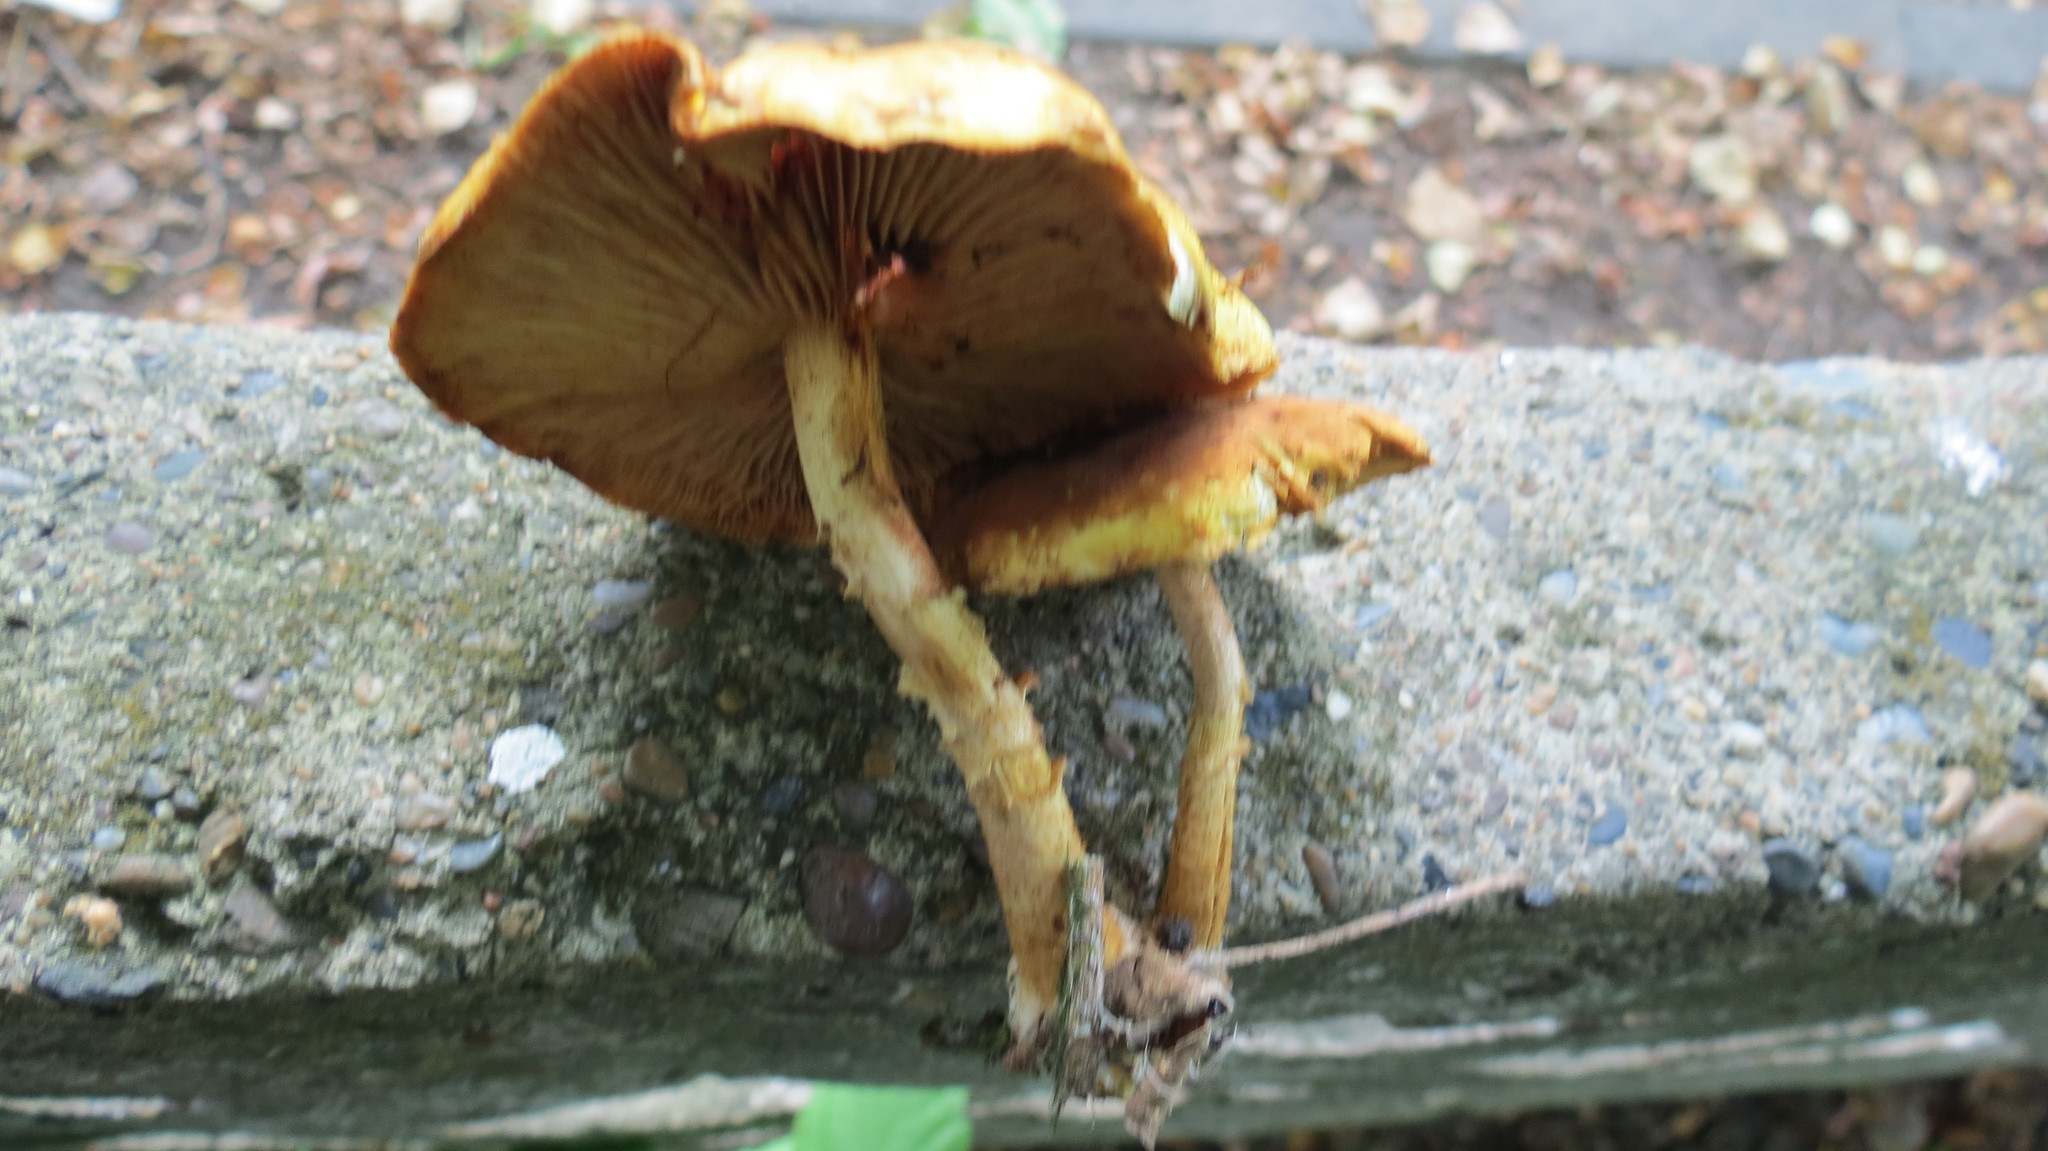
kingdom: Fungi
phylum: Basidiomycota
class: Agaricomycetes
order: Agaricales
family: Strophariaceae
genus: Pholiota
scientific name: Pholiota aurivella
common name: Golden scalycap
